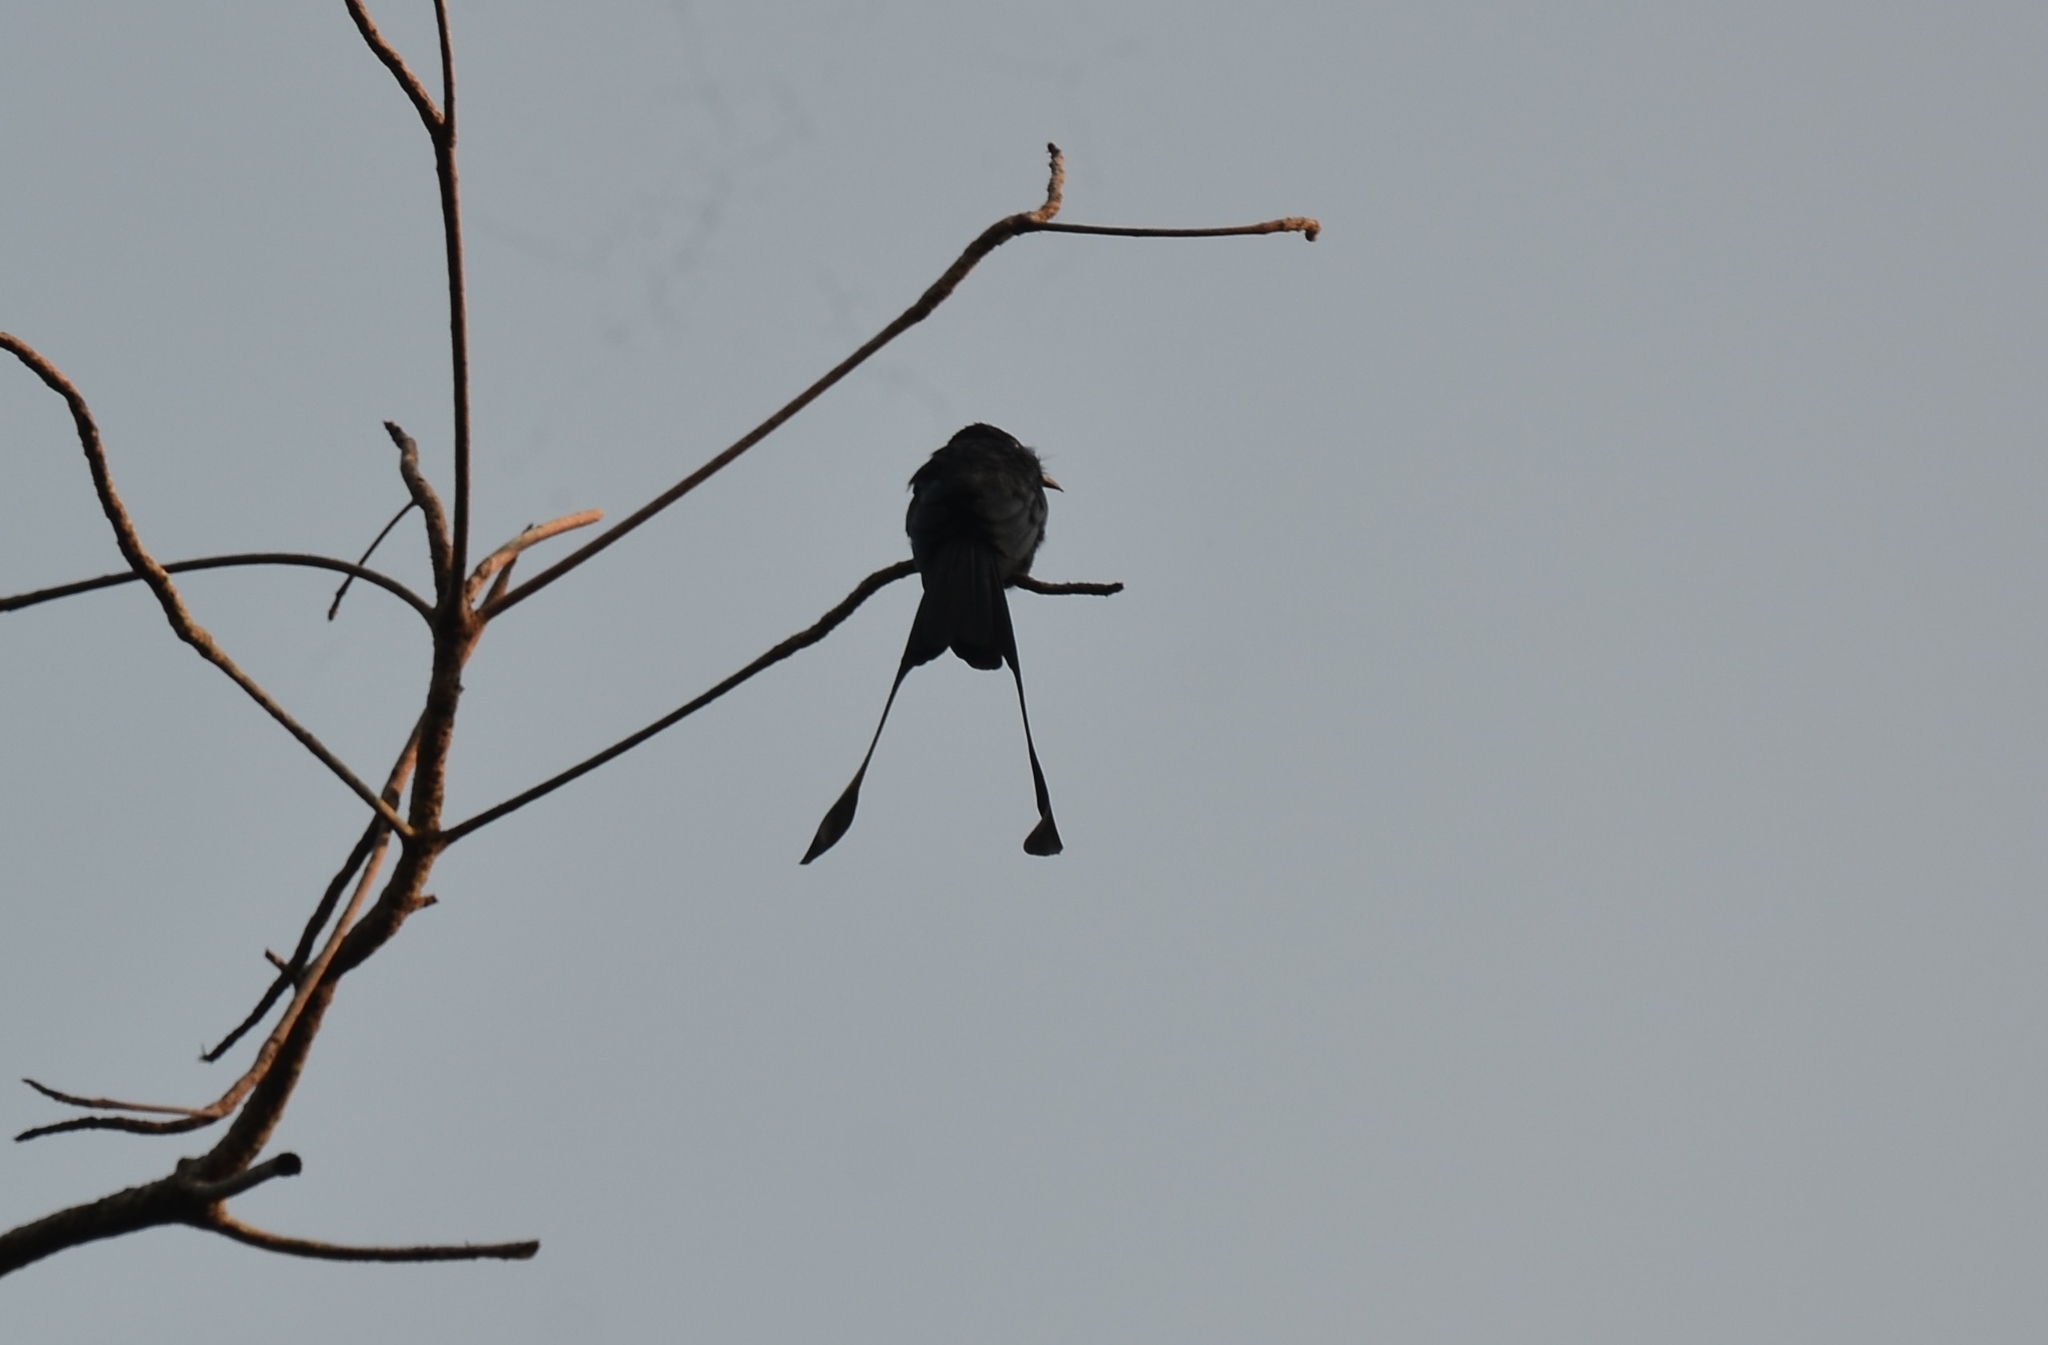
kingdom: Animalia
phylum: Chordata
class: Aves
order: Passeriformes
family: Dicruridae
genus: Dicrurus
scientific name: Dicrurus paradiseus
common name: Greater racket-tailed drongo
